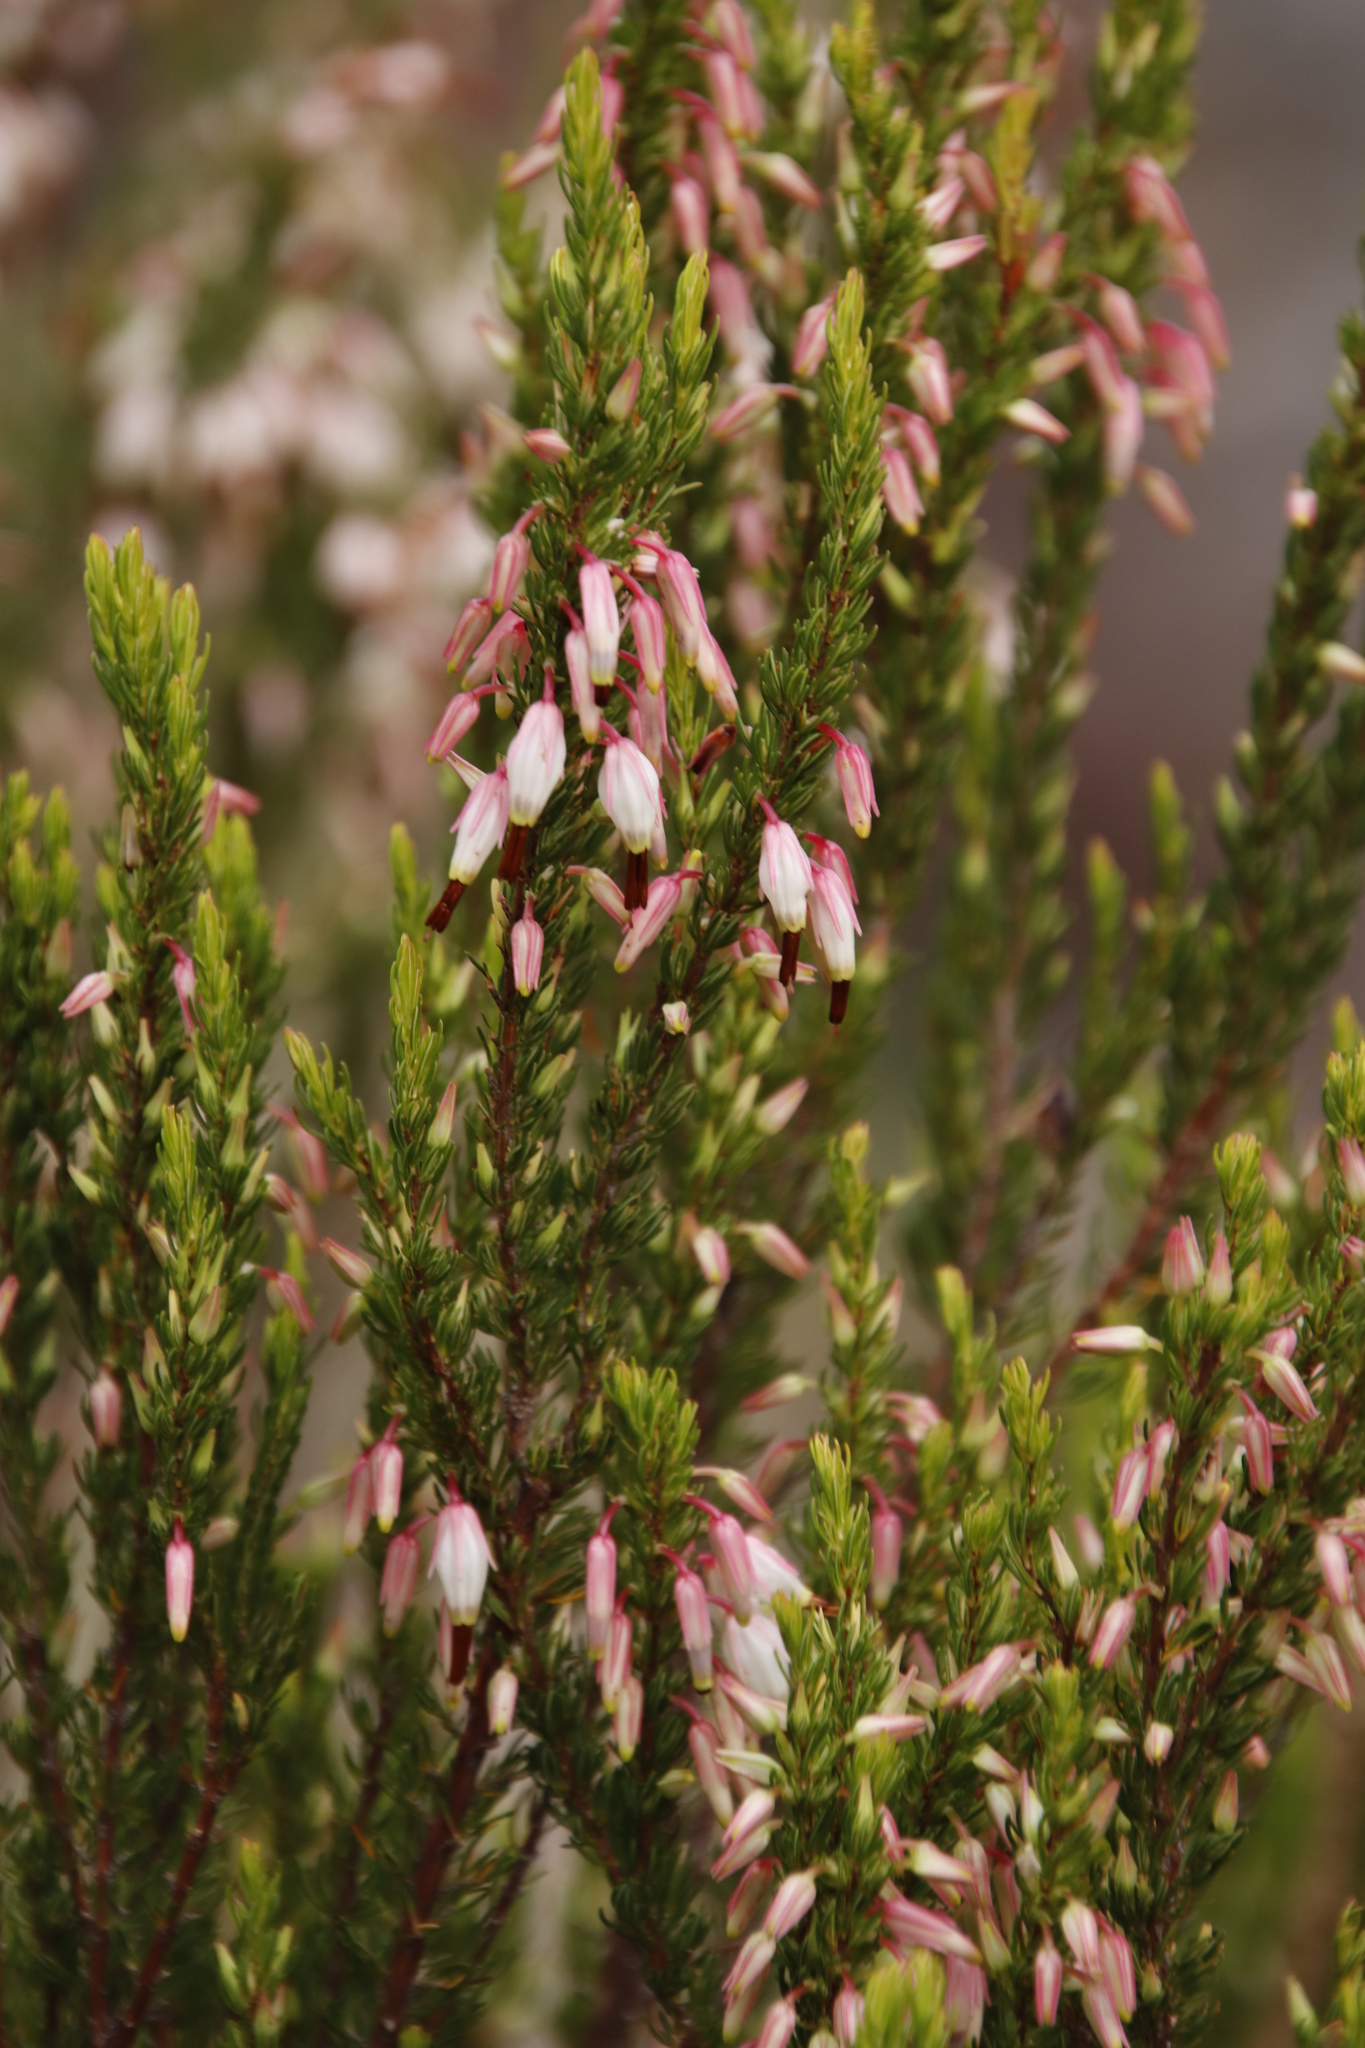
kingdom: Plantae
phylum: Tracheophyta
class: Magnoliopsida
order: Ericales
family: Ericaceae
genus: Erica
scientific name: Erica plukenetii
